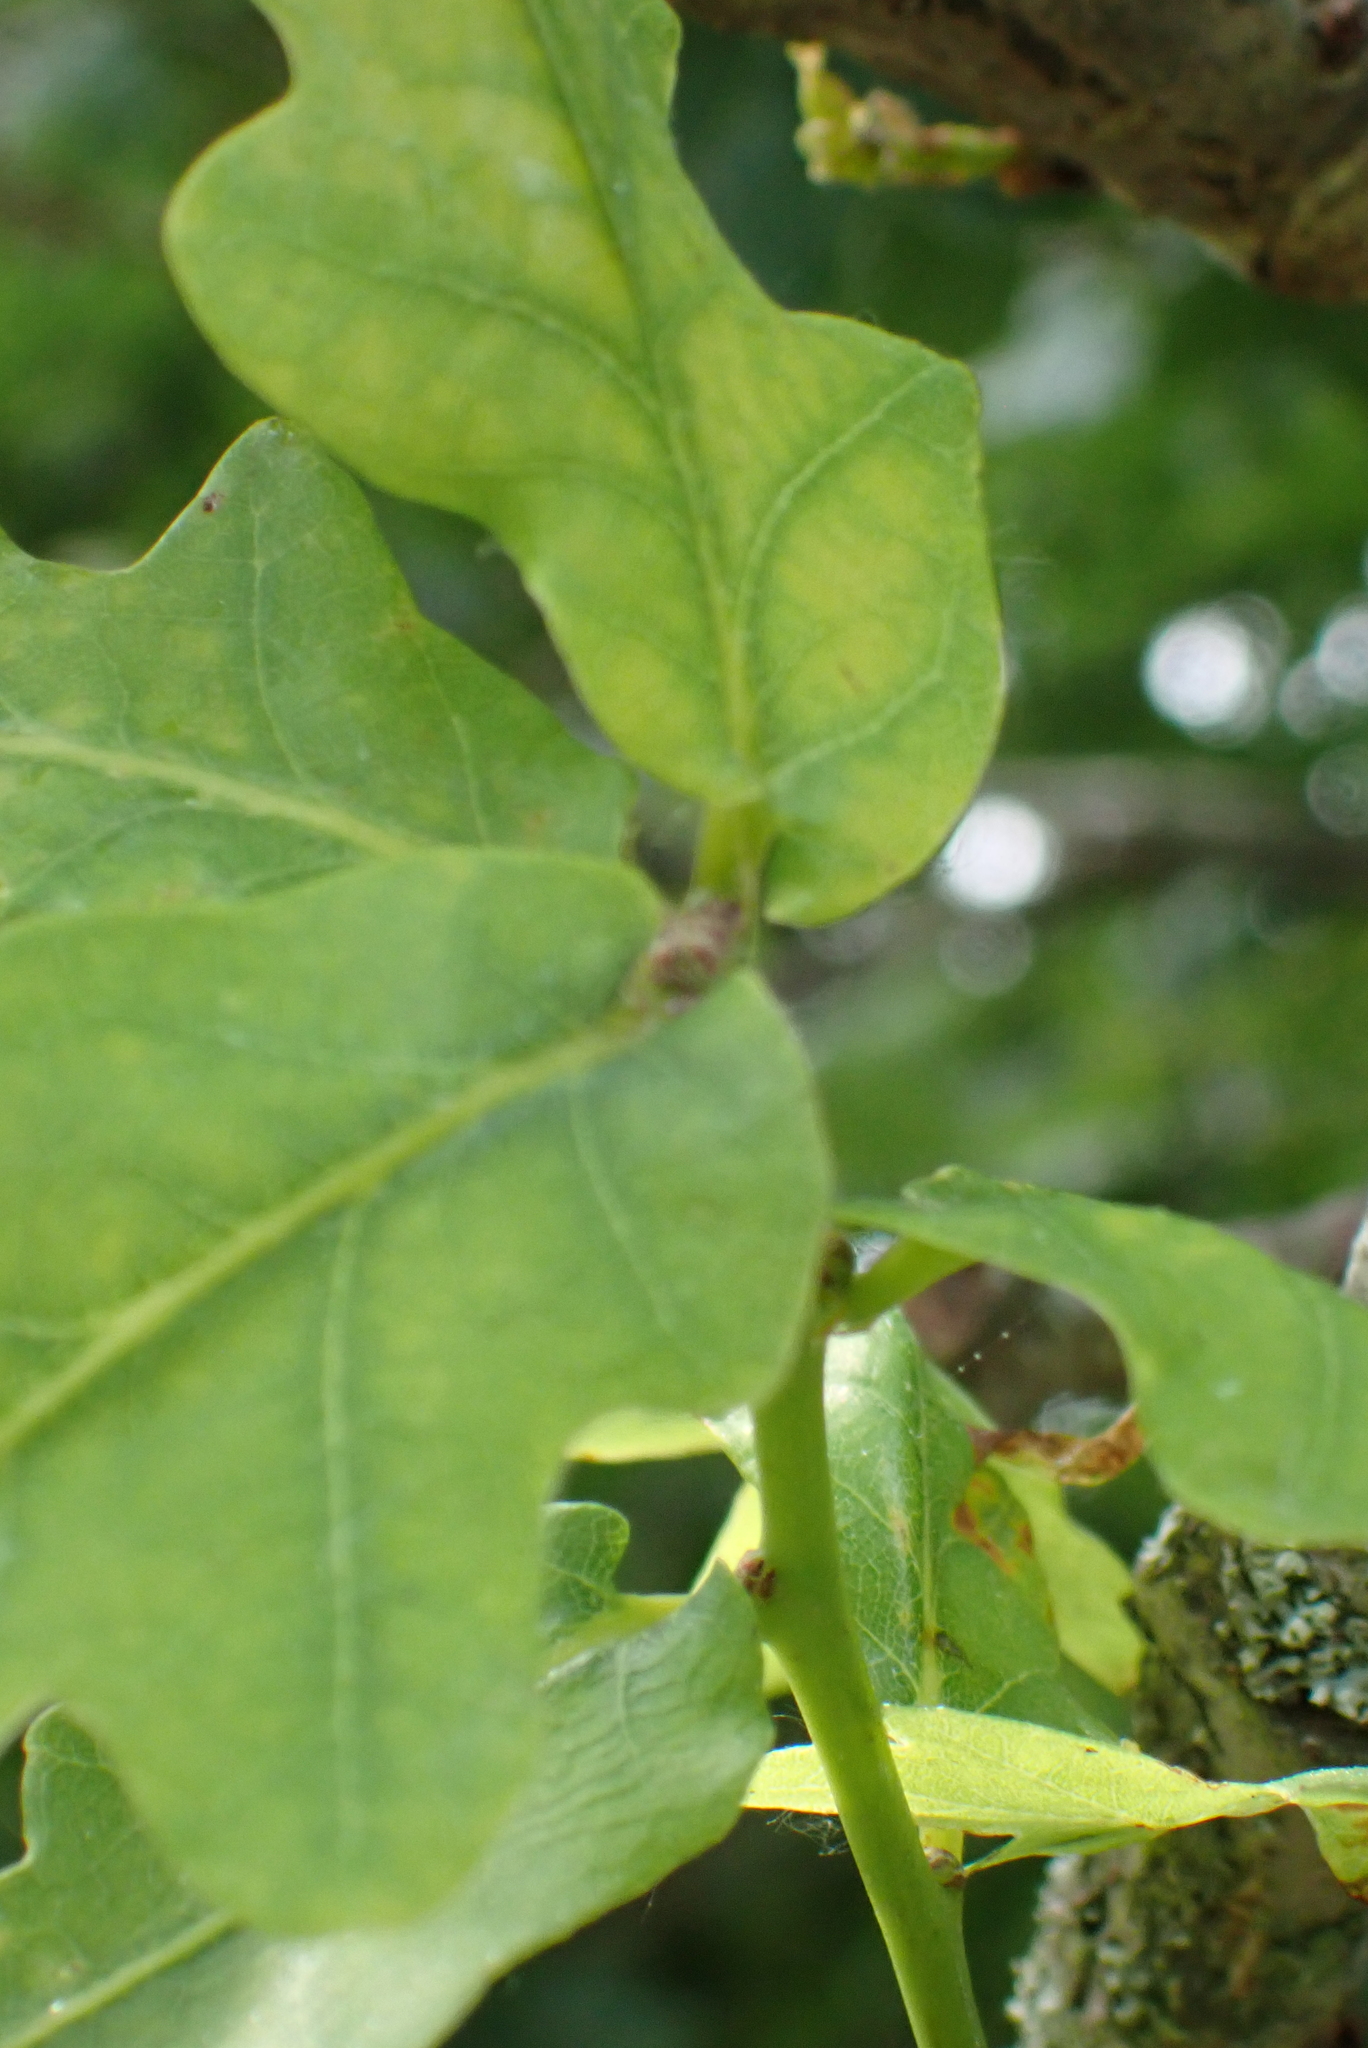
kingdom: Plantae
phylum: Tracheophyta
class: Magnoliopsida
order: Fagales
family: Fagaceae
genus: Quercus
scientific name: Quercus robur
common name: Pedunculate oak
